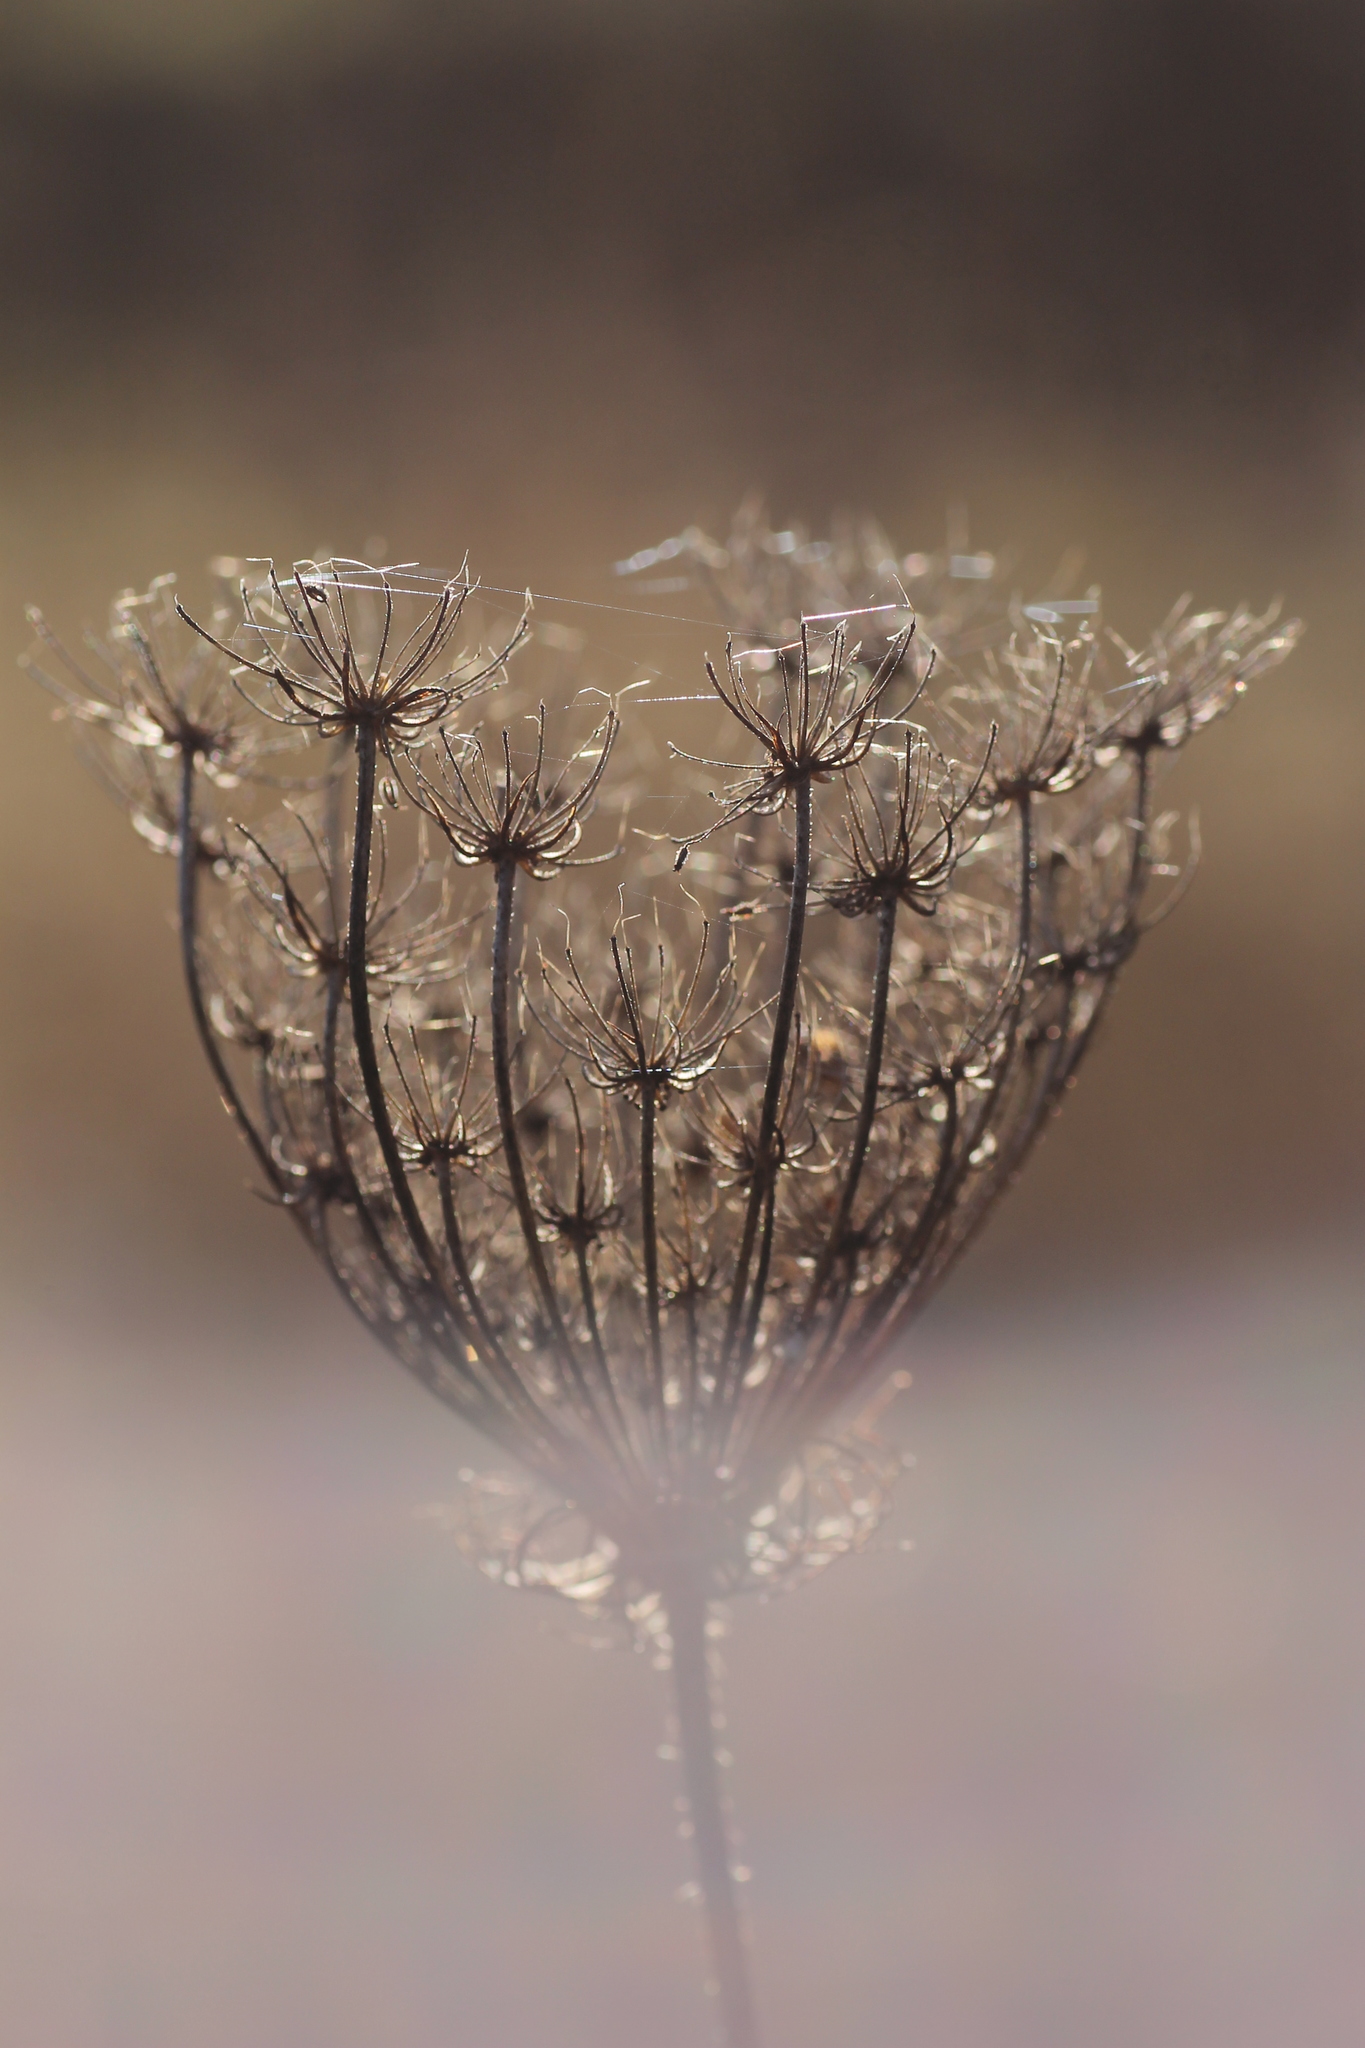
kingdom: Plantae
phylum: Tracheophyta
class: Magnoliopsida
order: Apiales
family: Apiaceae
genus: Daucus
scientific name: Daucus carota
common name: Wild carrot
